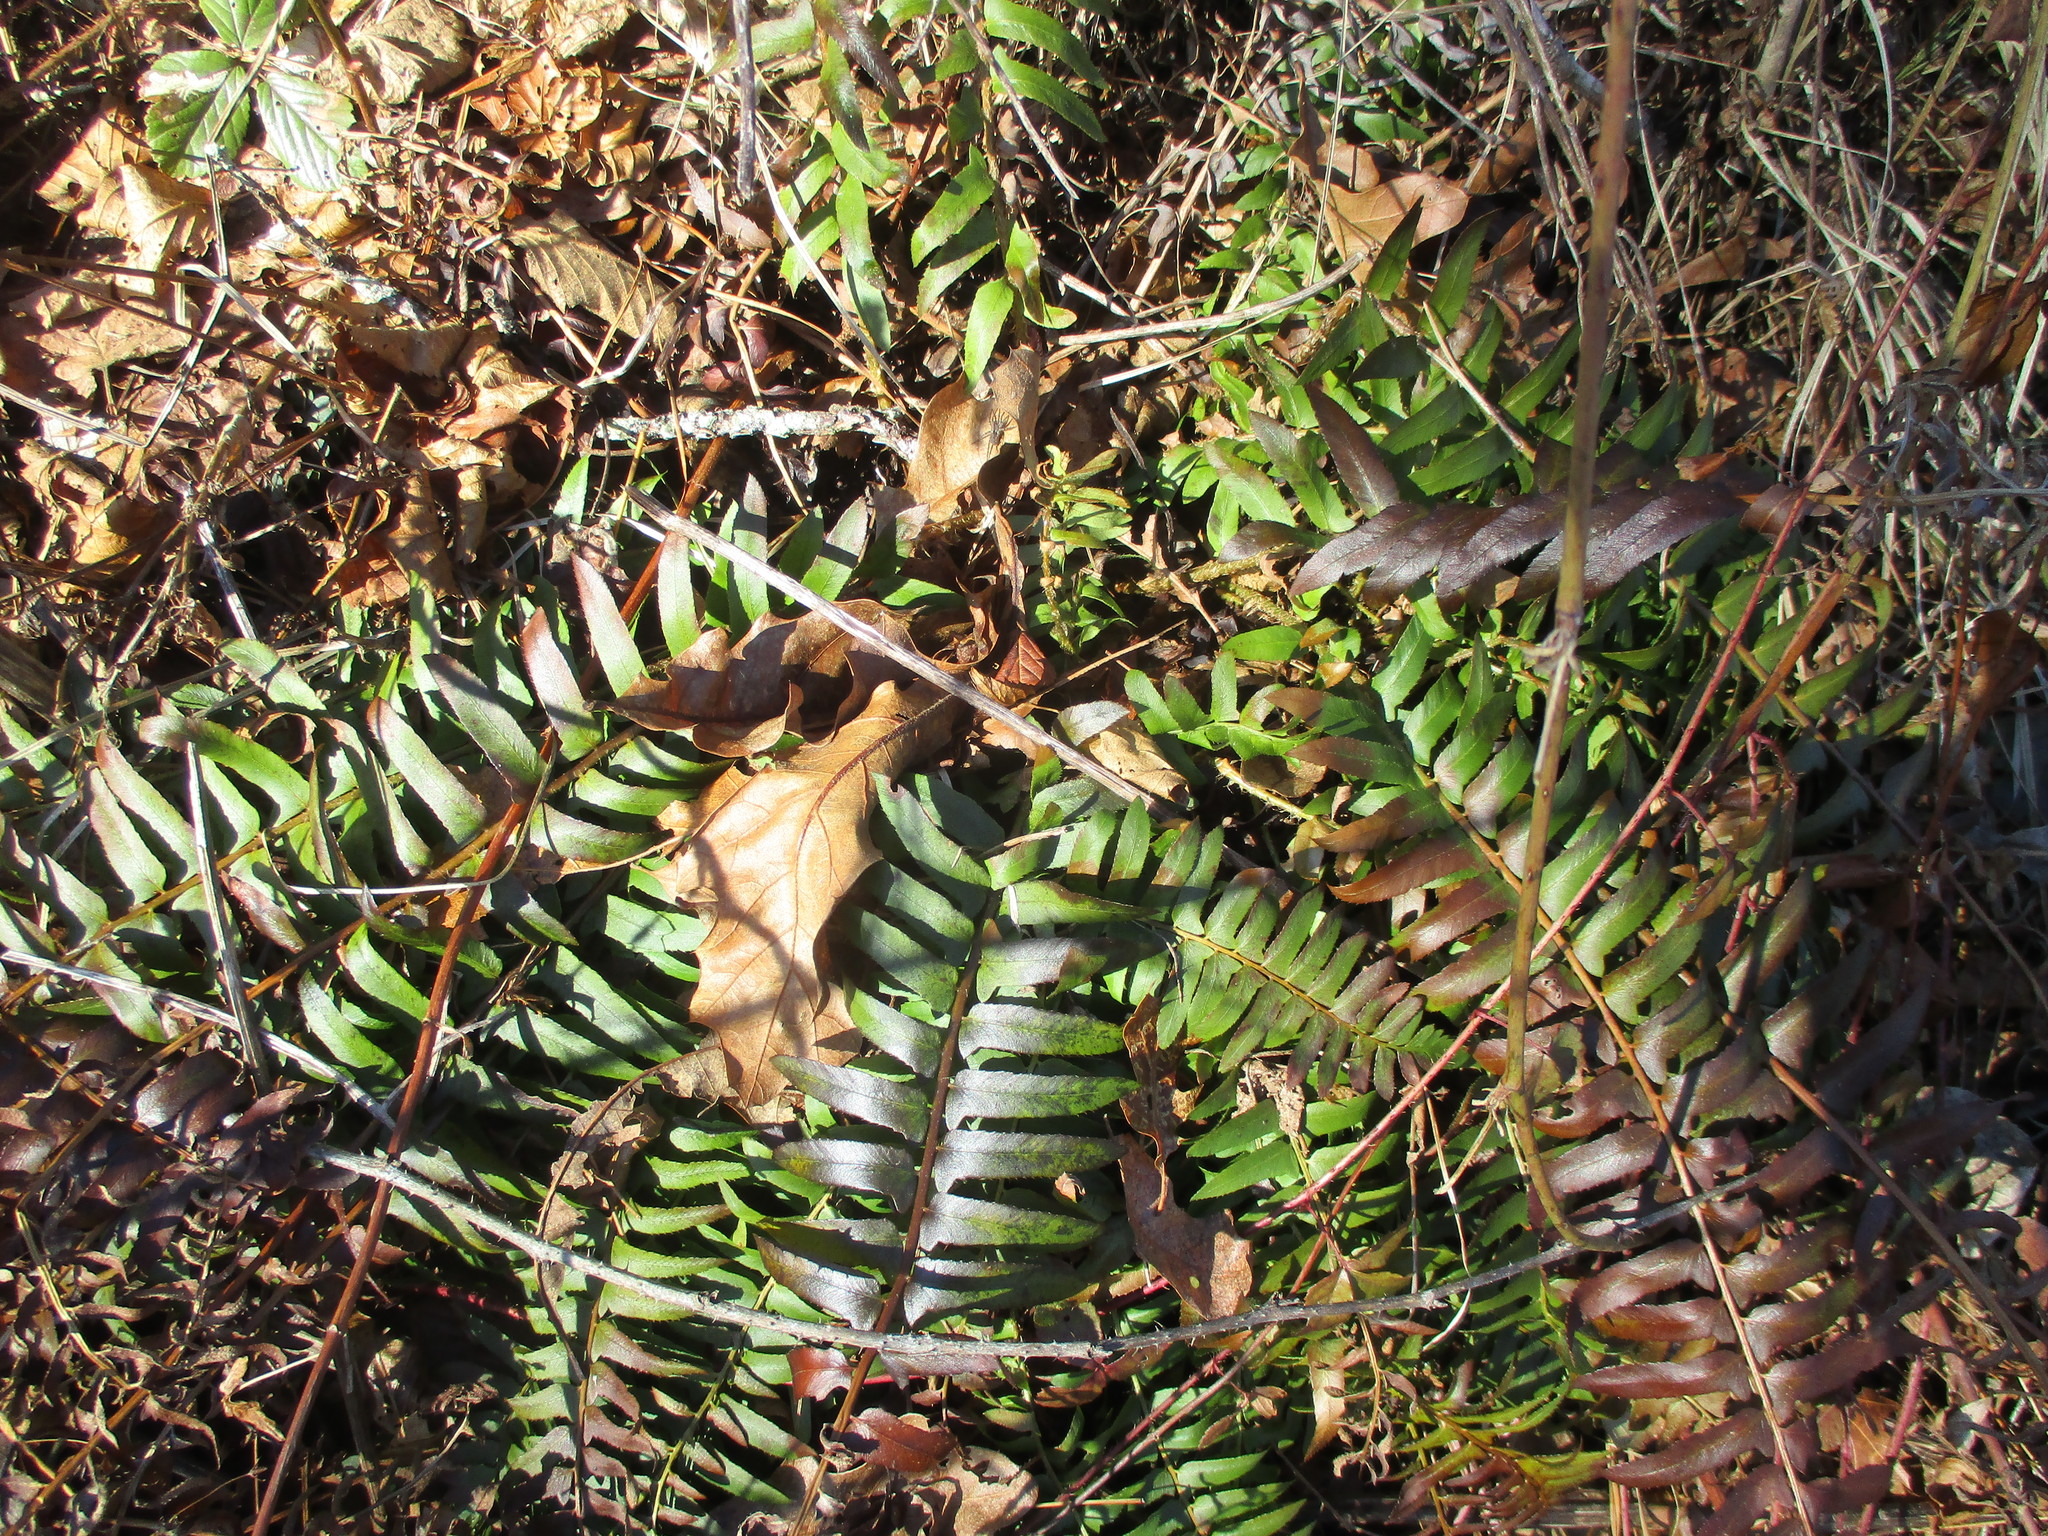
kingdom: Plantae
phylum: Tracheophyta
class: Polypodiopsida
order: Polypodiales
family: Dryopteridaceae
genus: Polystichum
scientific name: Polystichum acrostichoides
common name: Christmas fern
